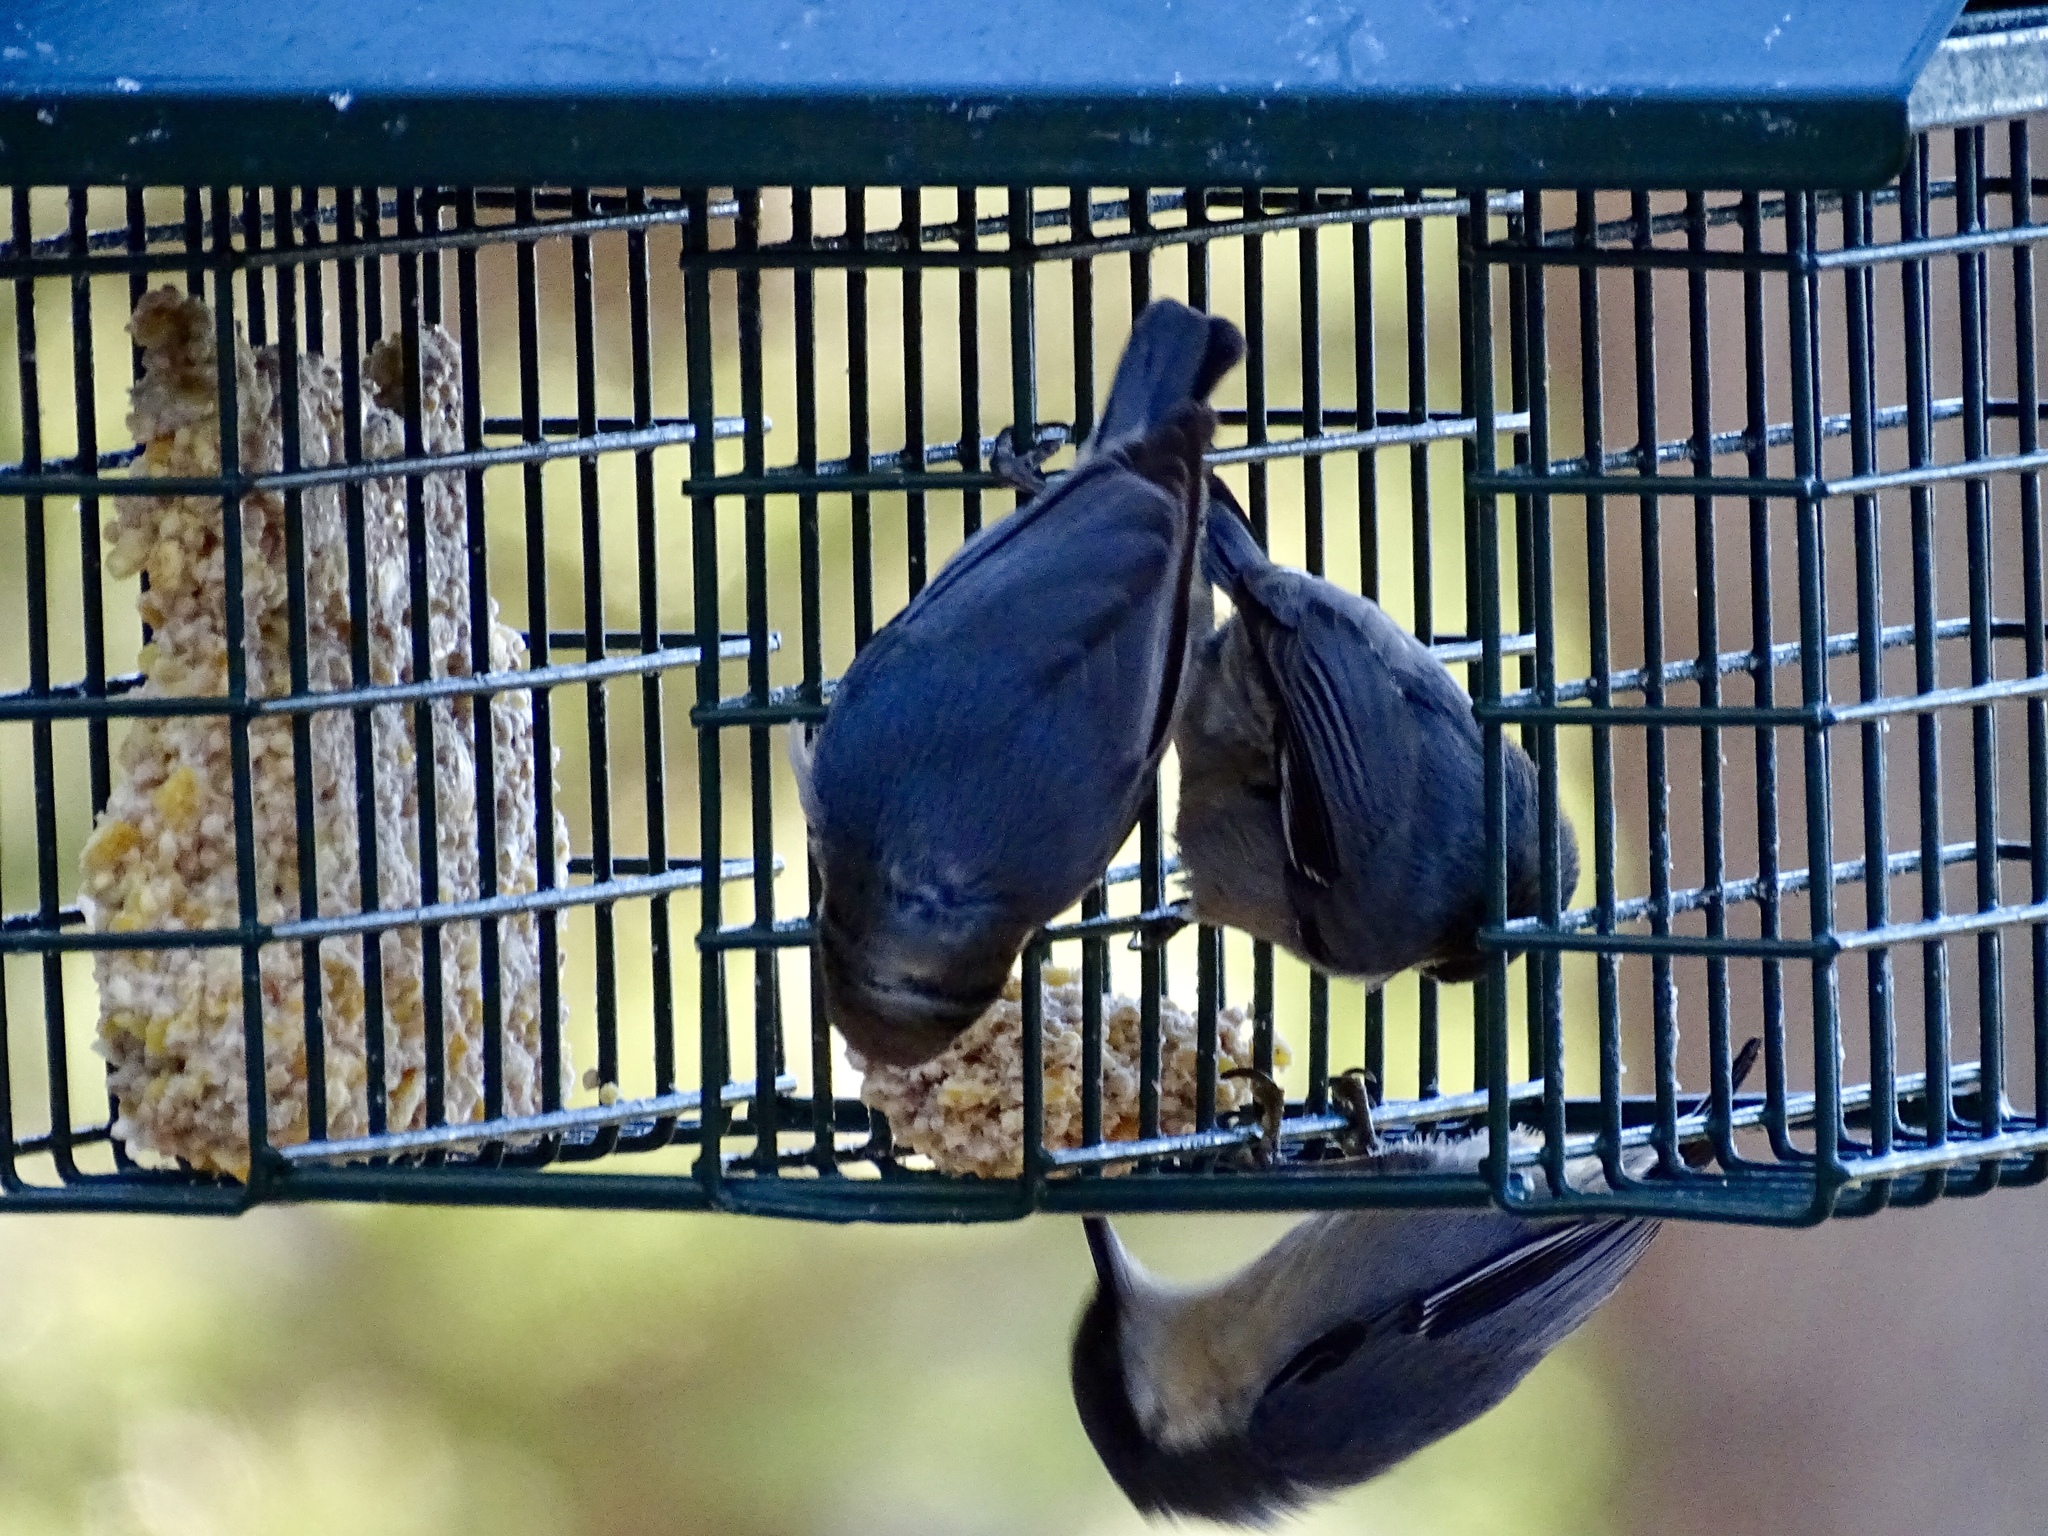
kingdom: Animalia
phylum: Chordata
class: Aves
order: Passeriformes
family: Sittidae
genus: Sitta
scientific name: Sitta pygmaea
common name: Pygmy nuthatch
